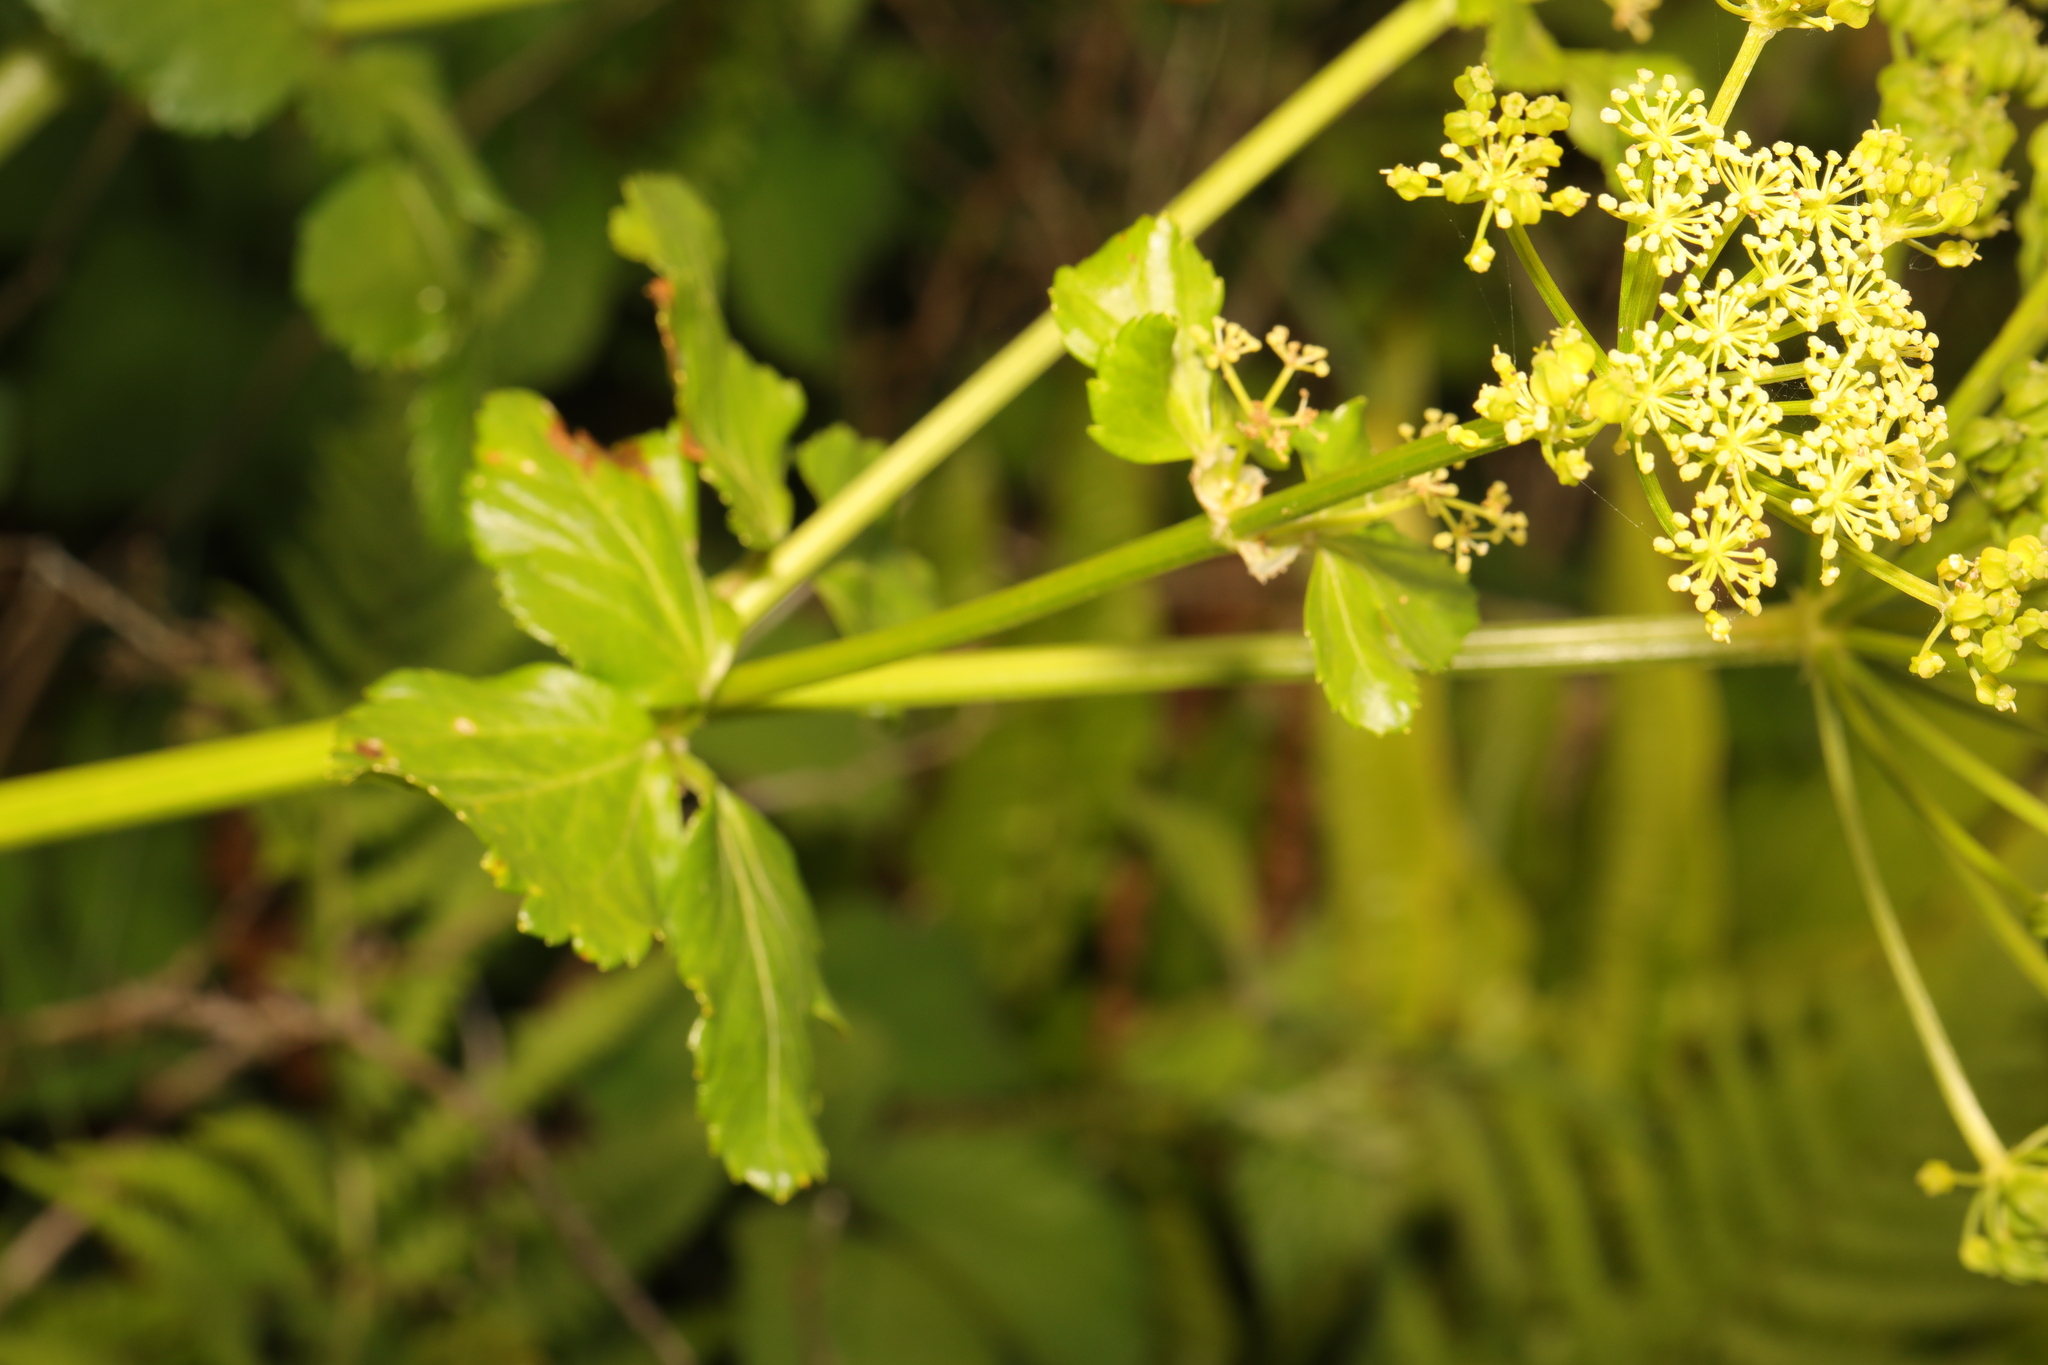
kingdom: Plantae
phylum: Tracheophyta
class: Magnoliopsida
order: Apiales
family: Apiaceae
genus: Smyrnium
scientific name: Smyrnium olusatrum
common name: Alexanders
